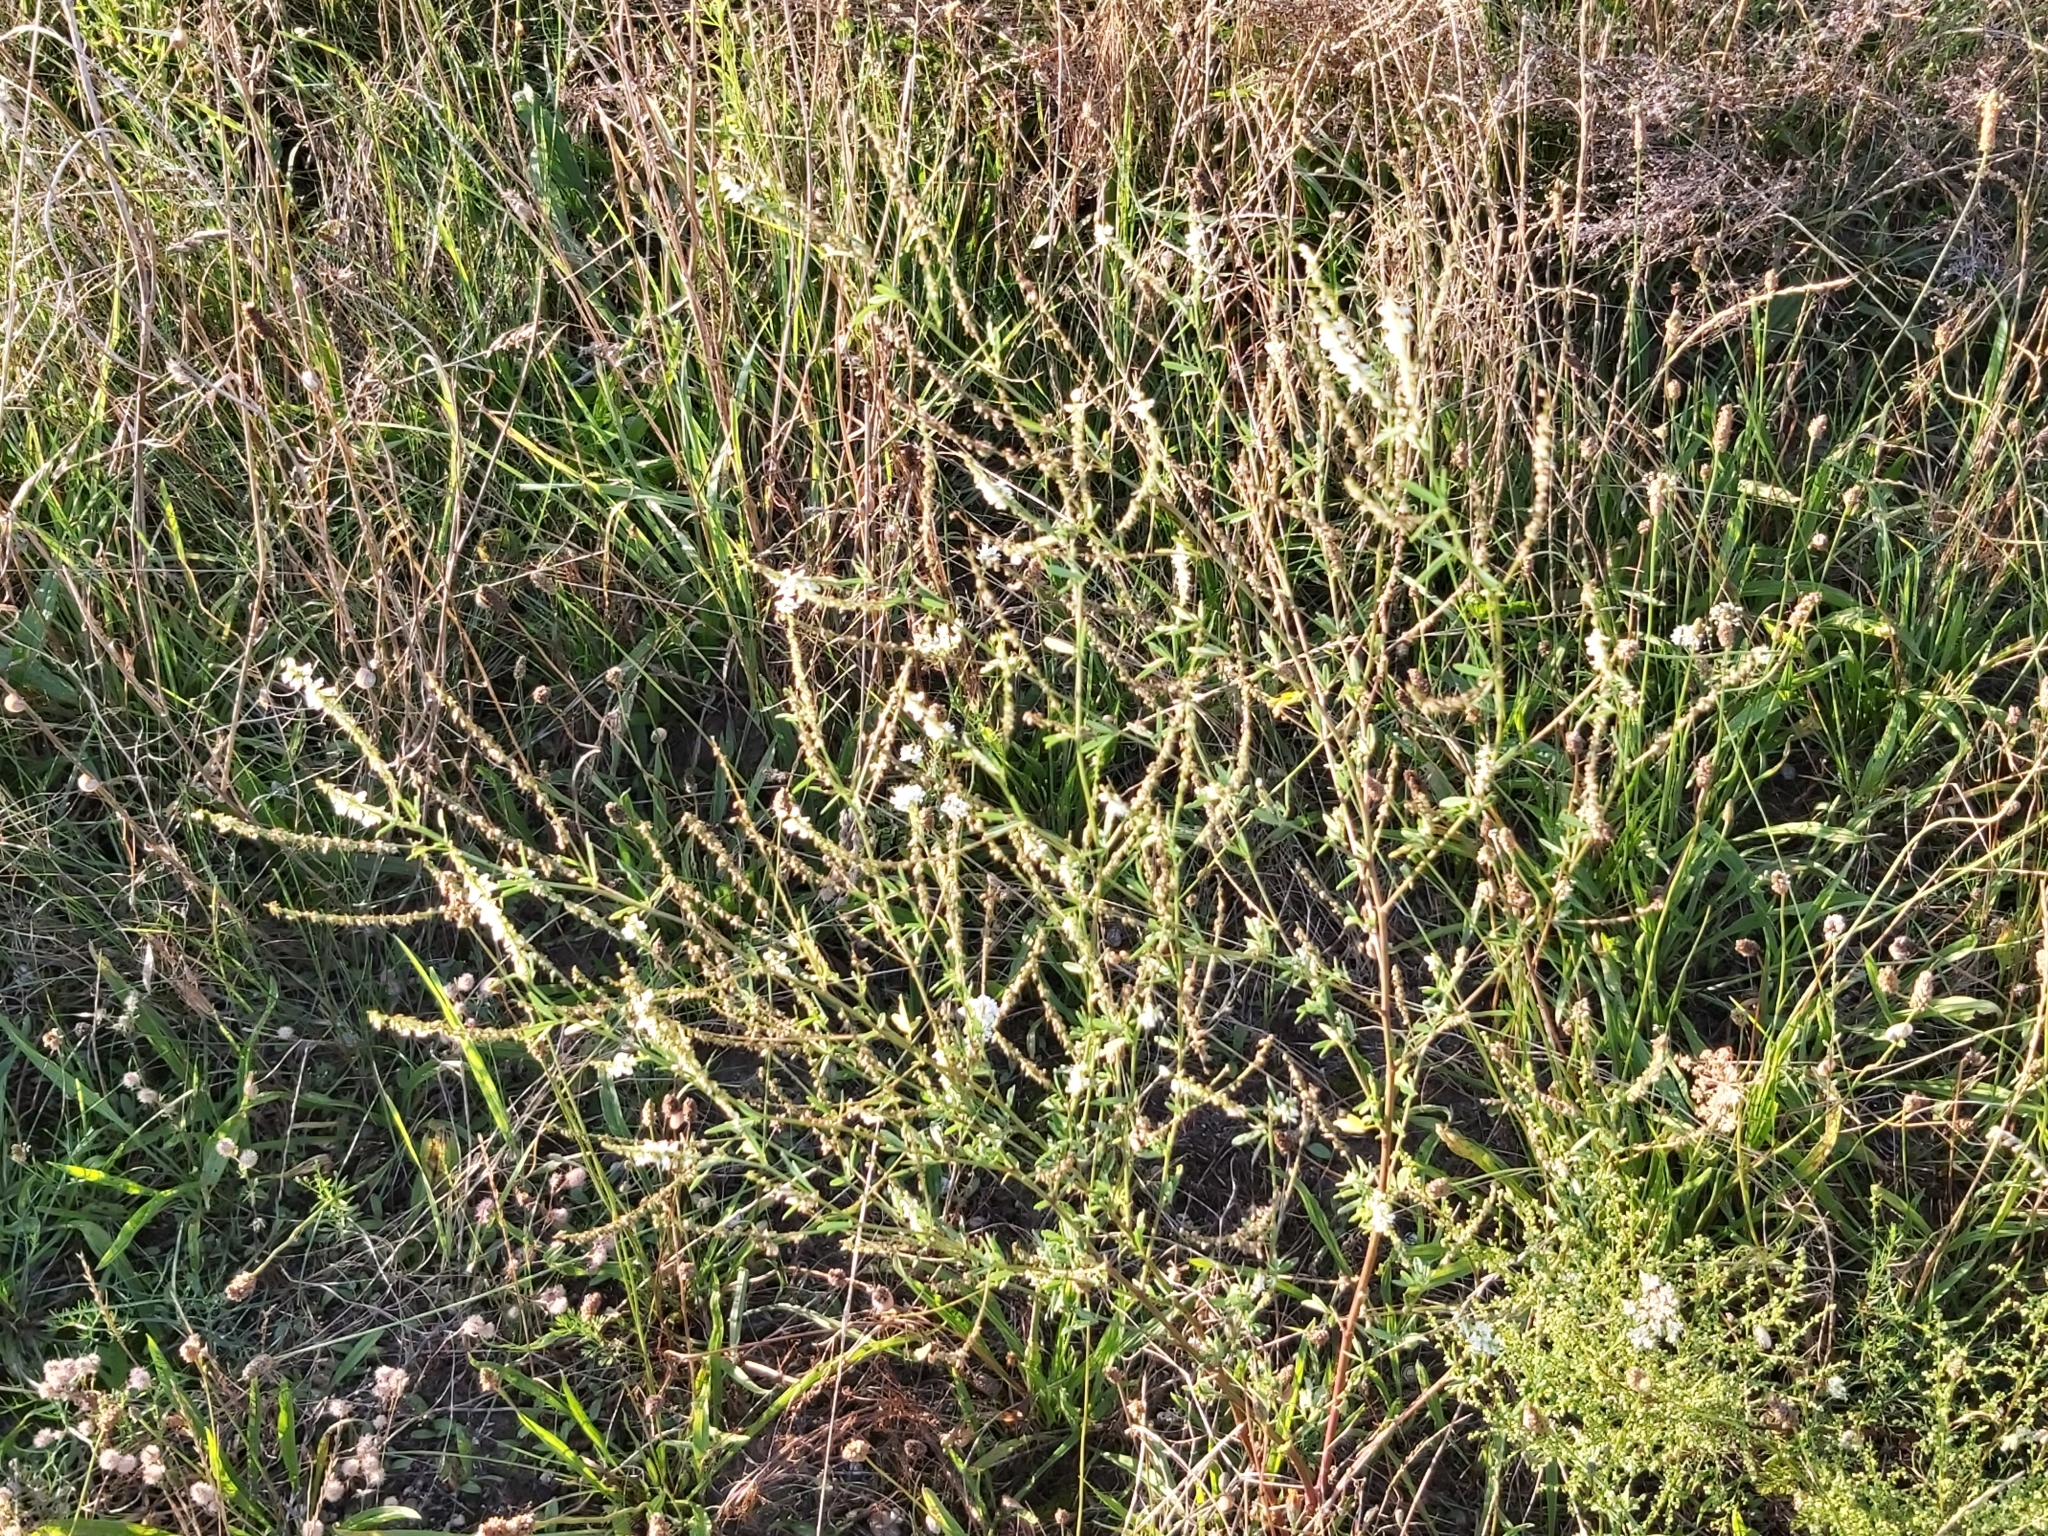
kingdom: Plantae
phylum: Tracheophyta
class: Magnoliopsida
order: Fabales
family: Fabaceae
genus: Melilotus
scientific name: Melilotus albus
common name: White melilot
